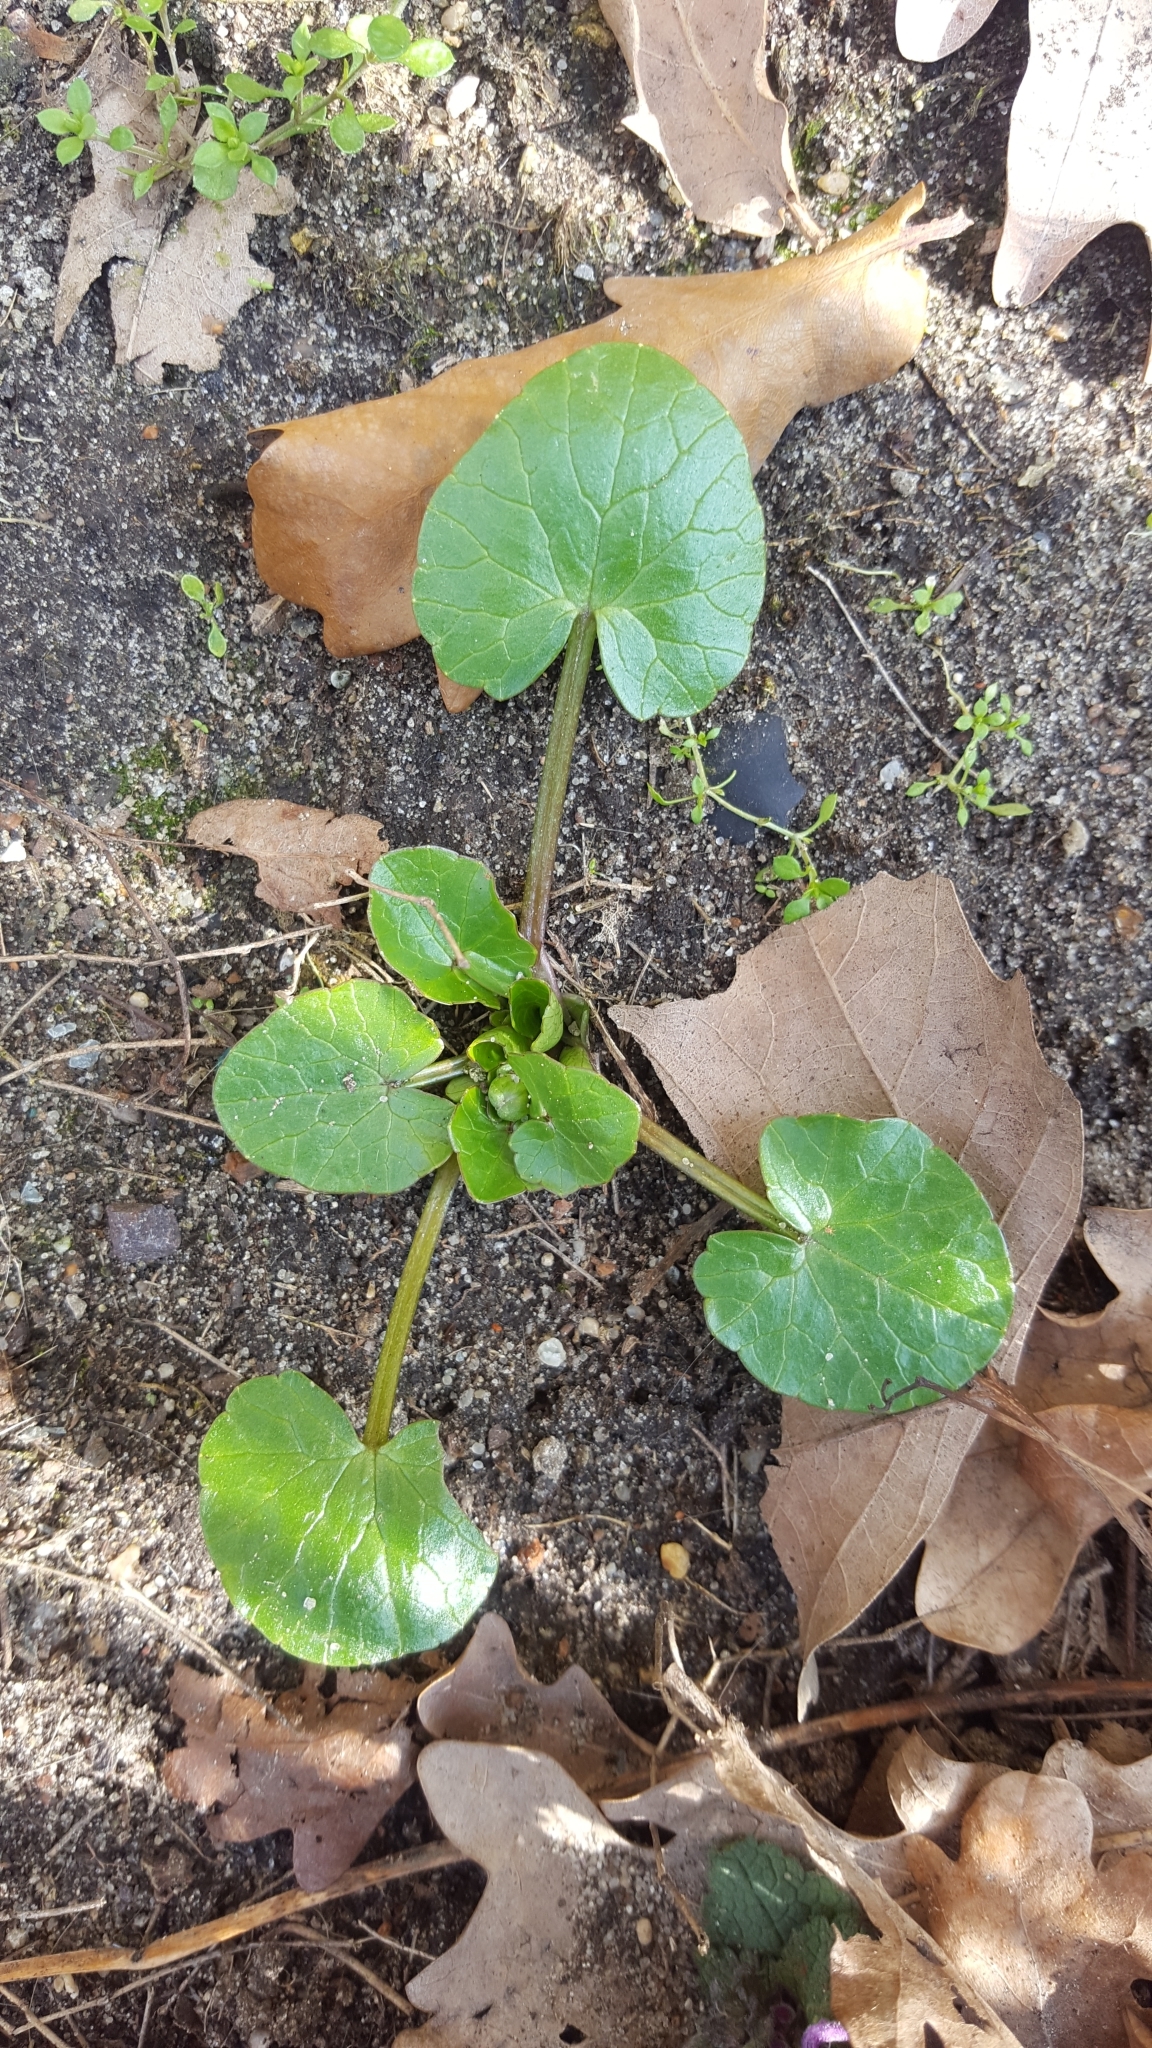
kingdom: Plantae
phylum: Tracheophyta
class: Magnoliopsida
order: Ranunculales
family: Ranunculaceae
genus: Ficaria
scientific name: Ficaria verna
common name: Lesser celandine
